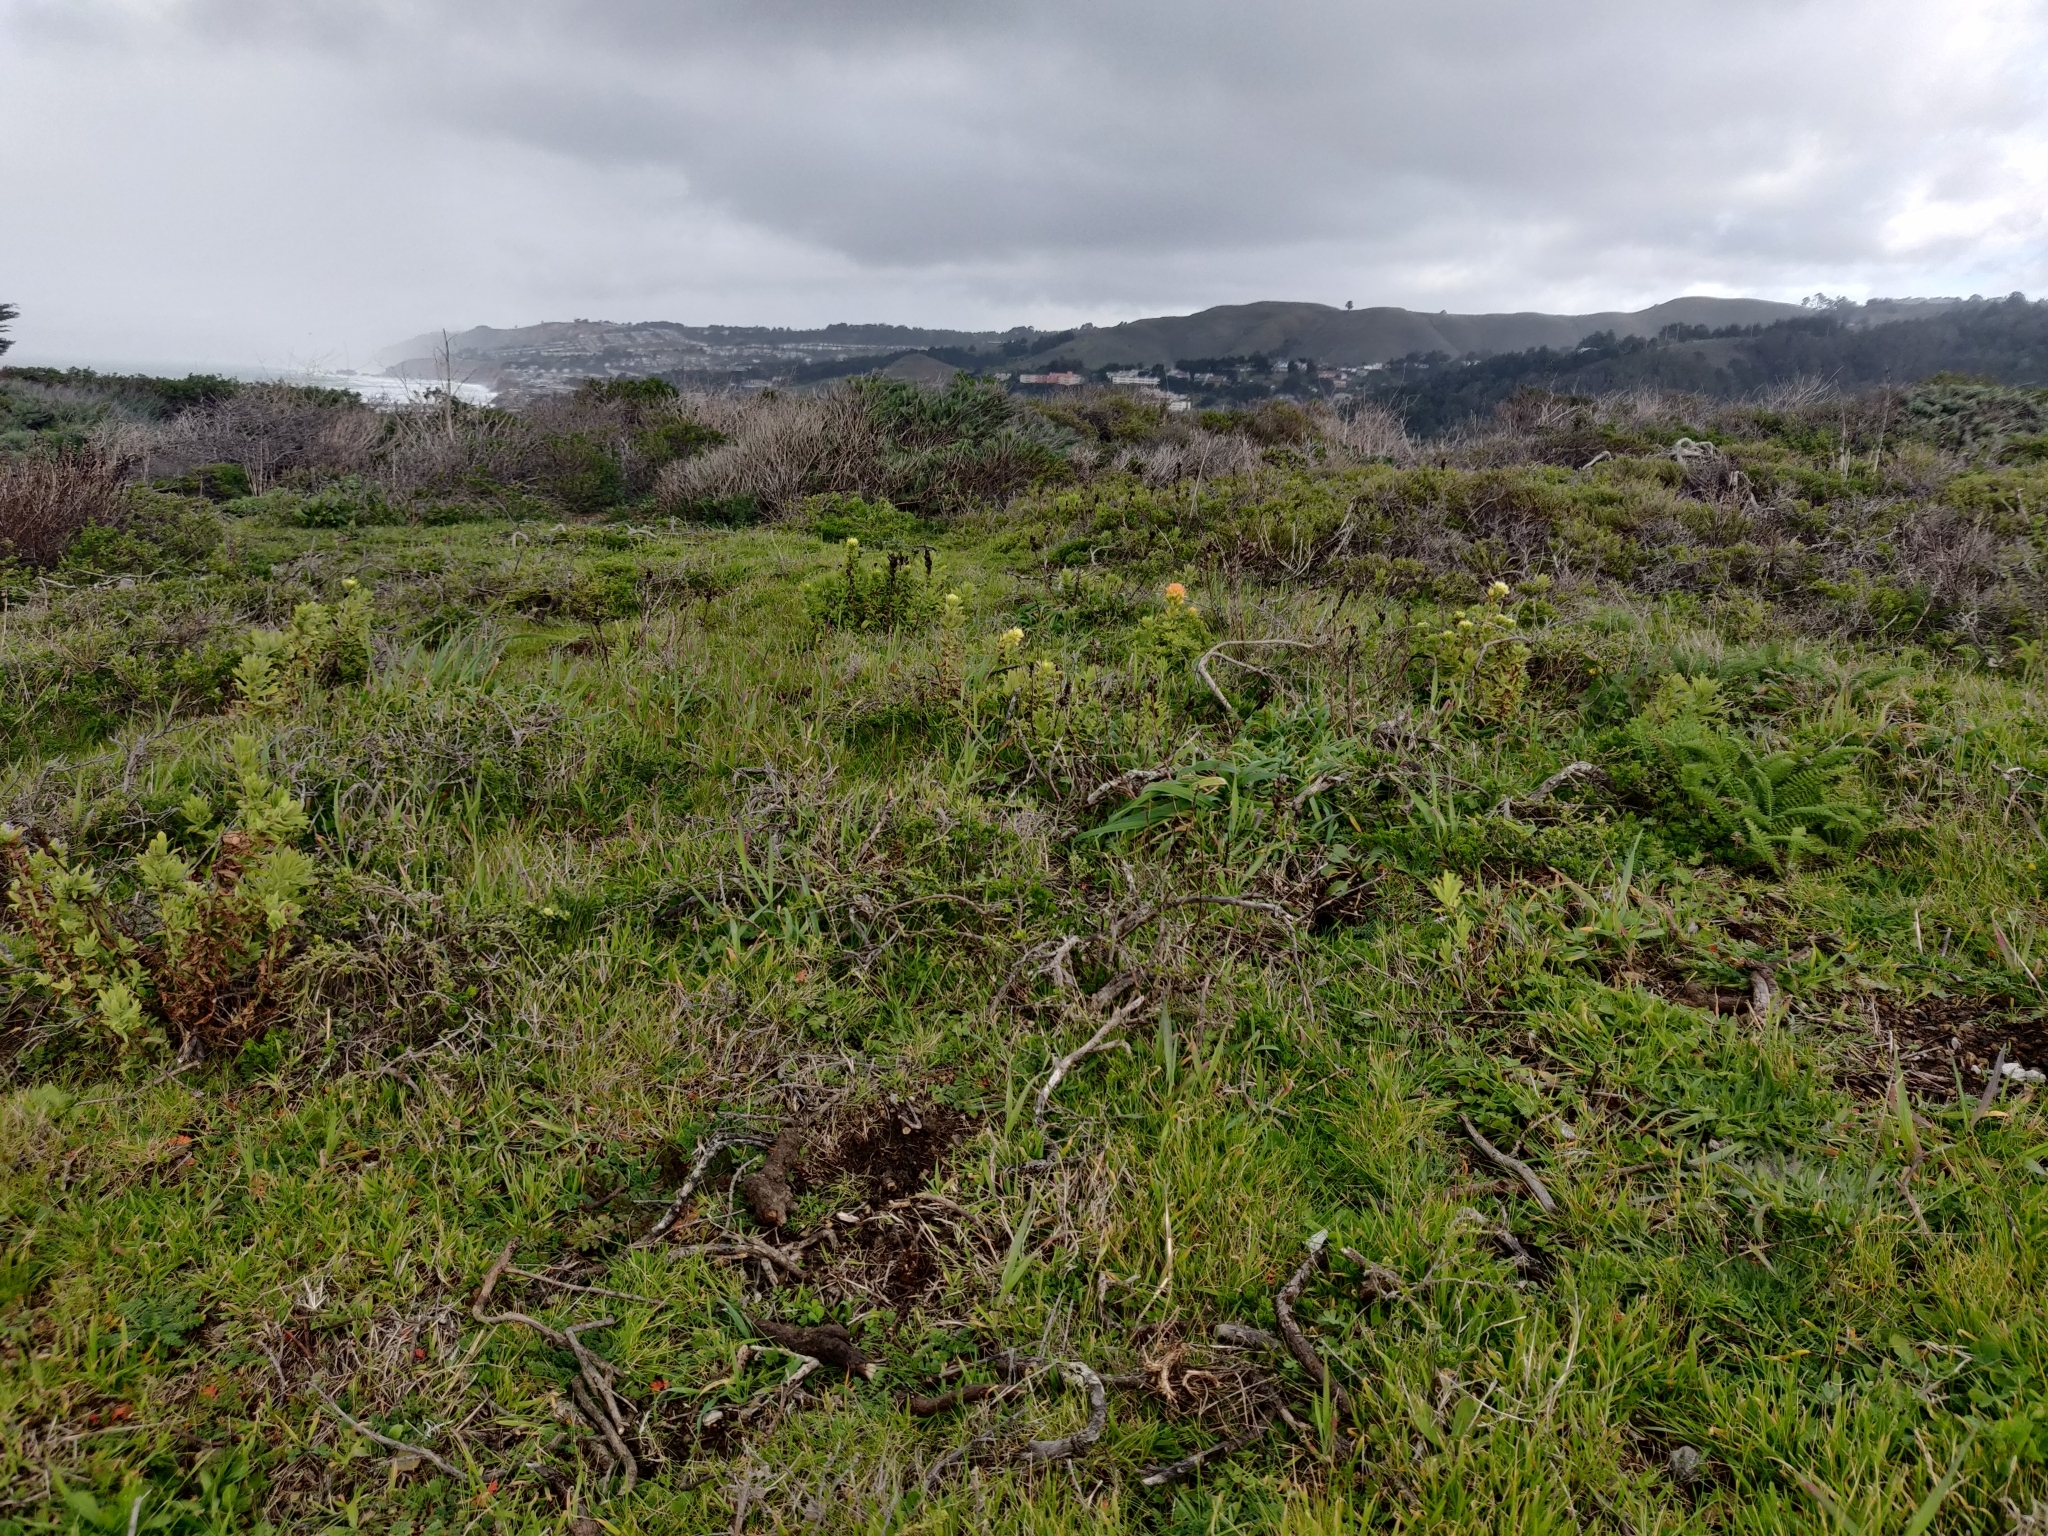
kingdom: Plantae
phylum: Tracheophyta
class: Magnoliopsida
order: Lamiales
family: Orobanchaceae
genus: Castilleja
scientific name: Castilleja wightii
